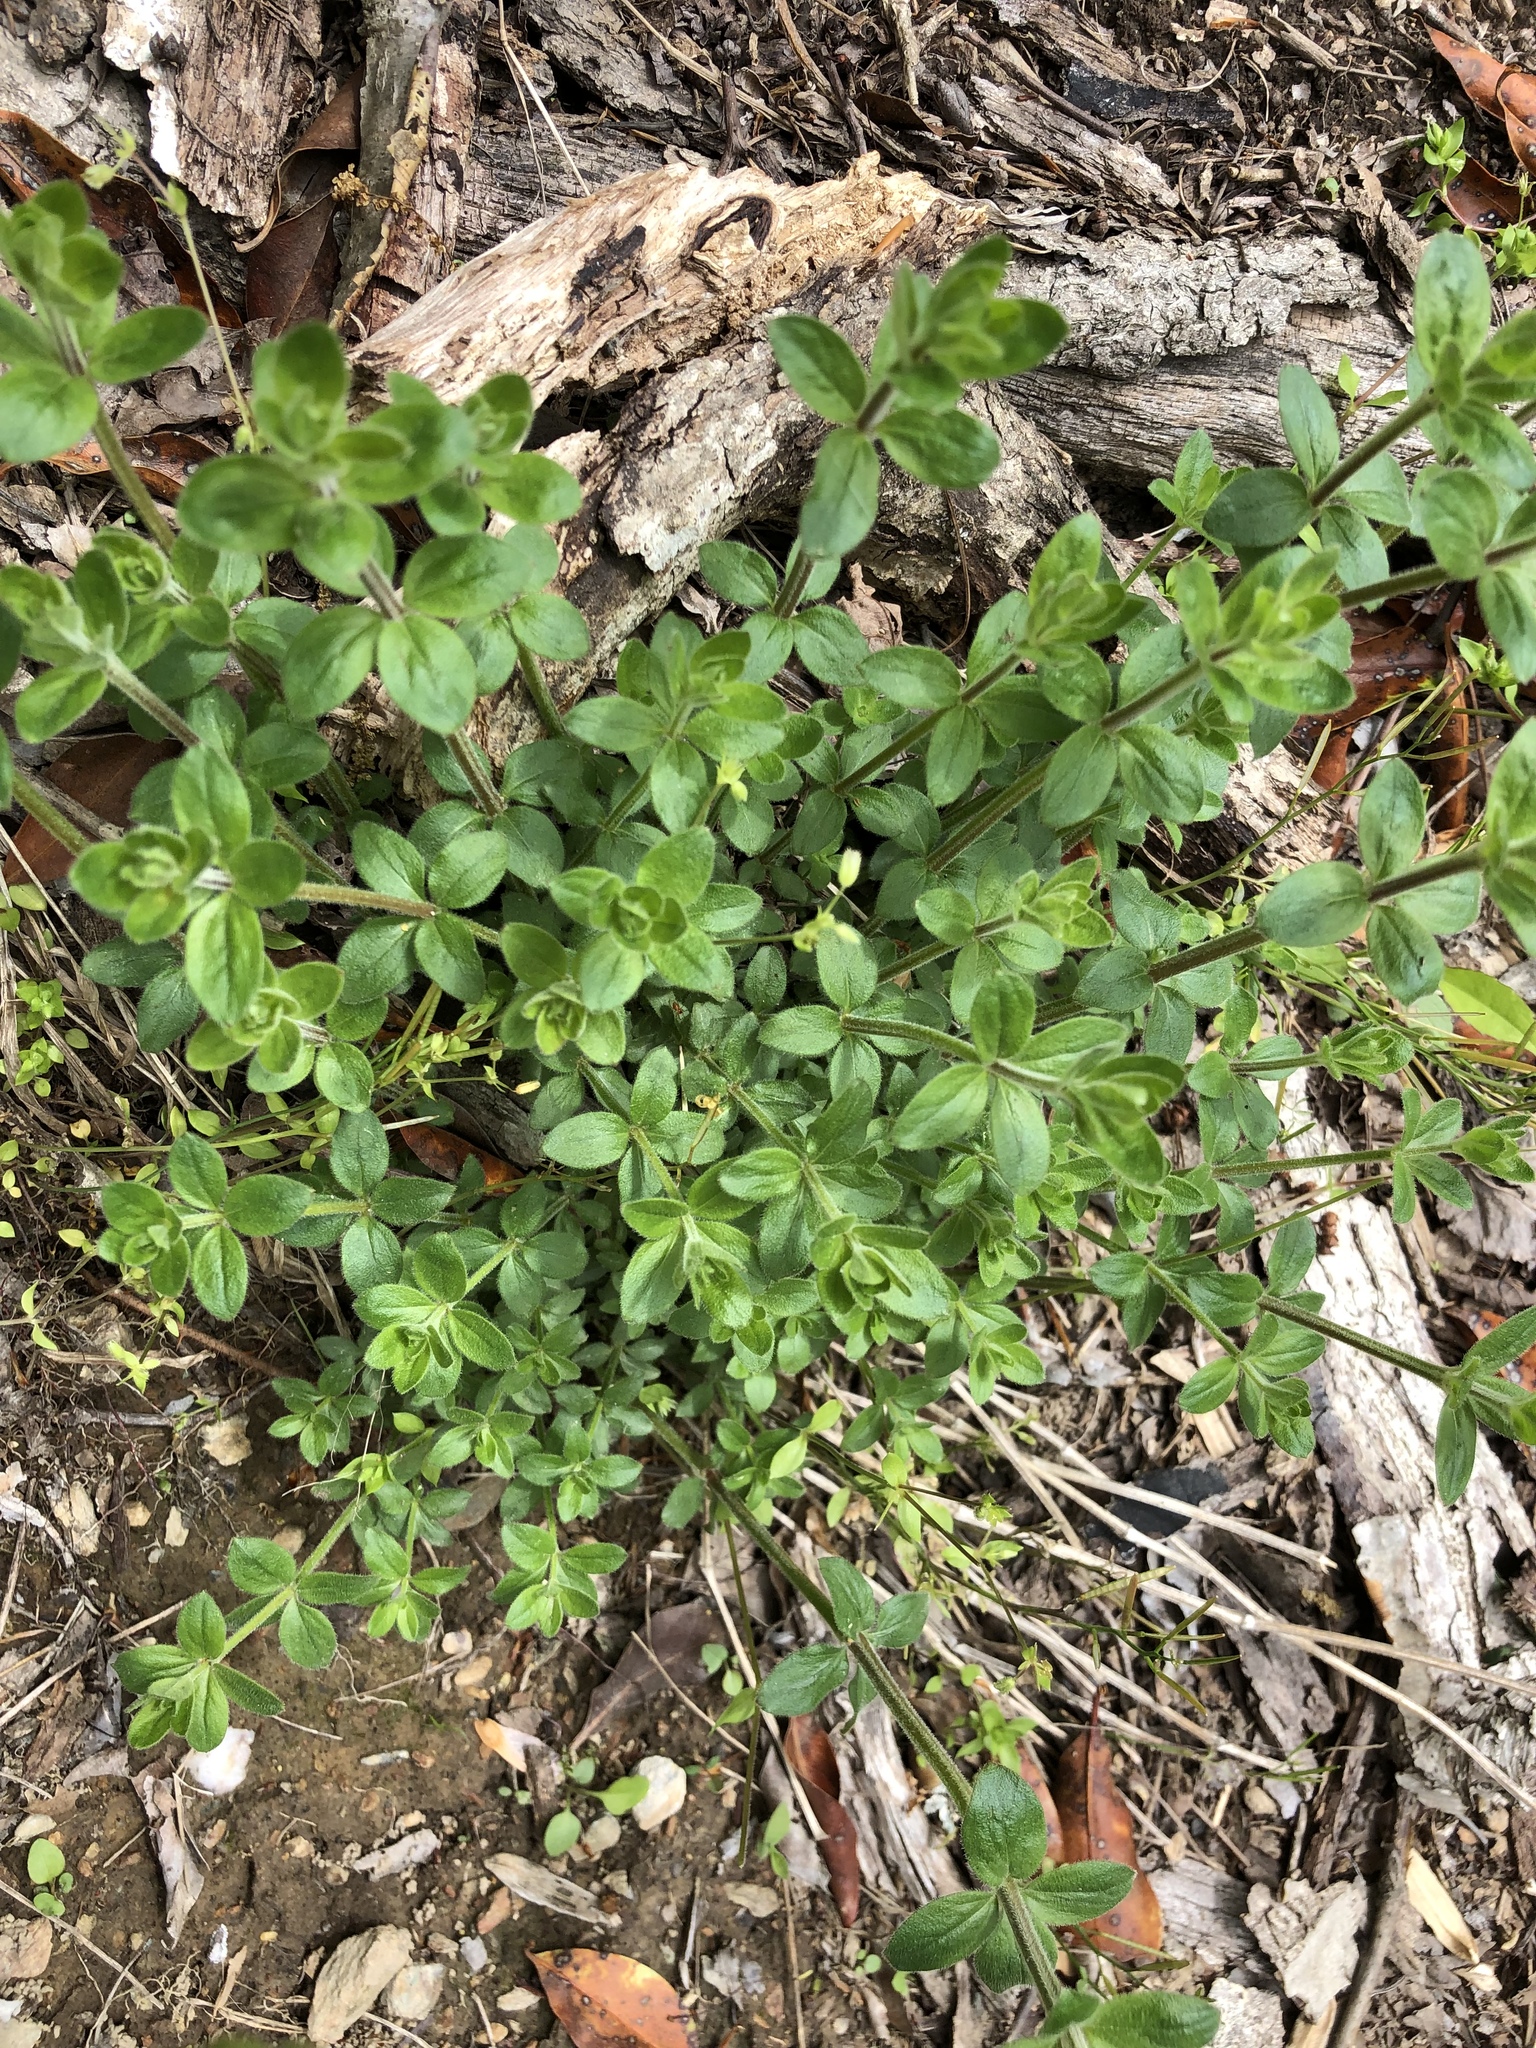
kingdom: Plantae
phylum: Tracheophyta
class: Magnoliopsida
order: Gentianales
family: Rubiaceae
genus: Galium
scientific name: Galium circaezans
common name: Forest bedstraw
